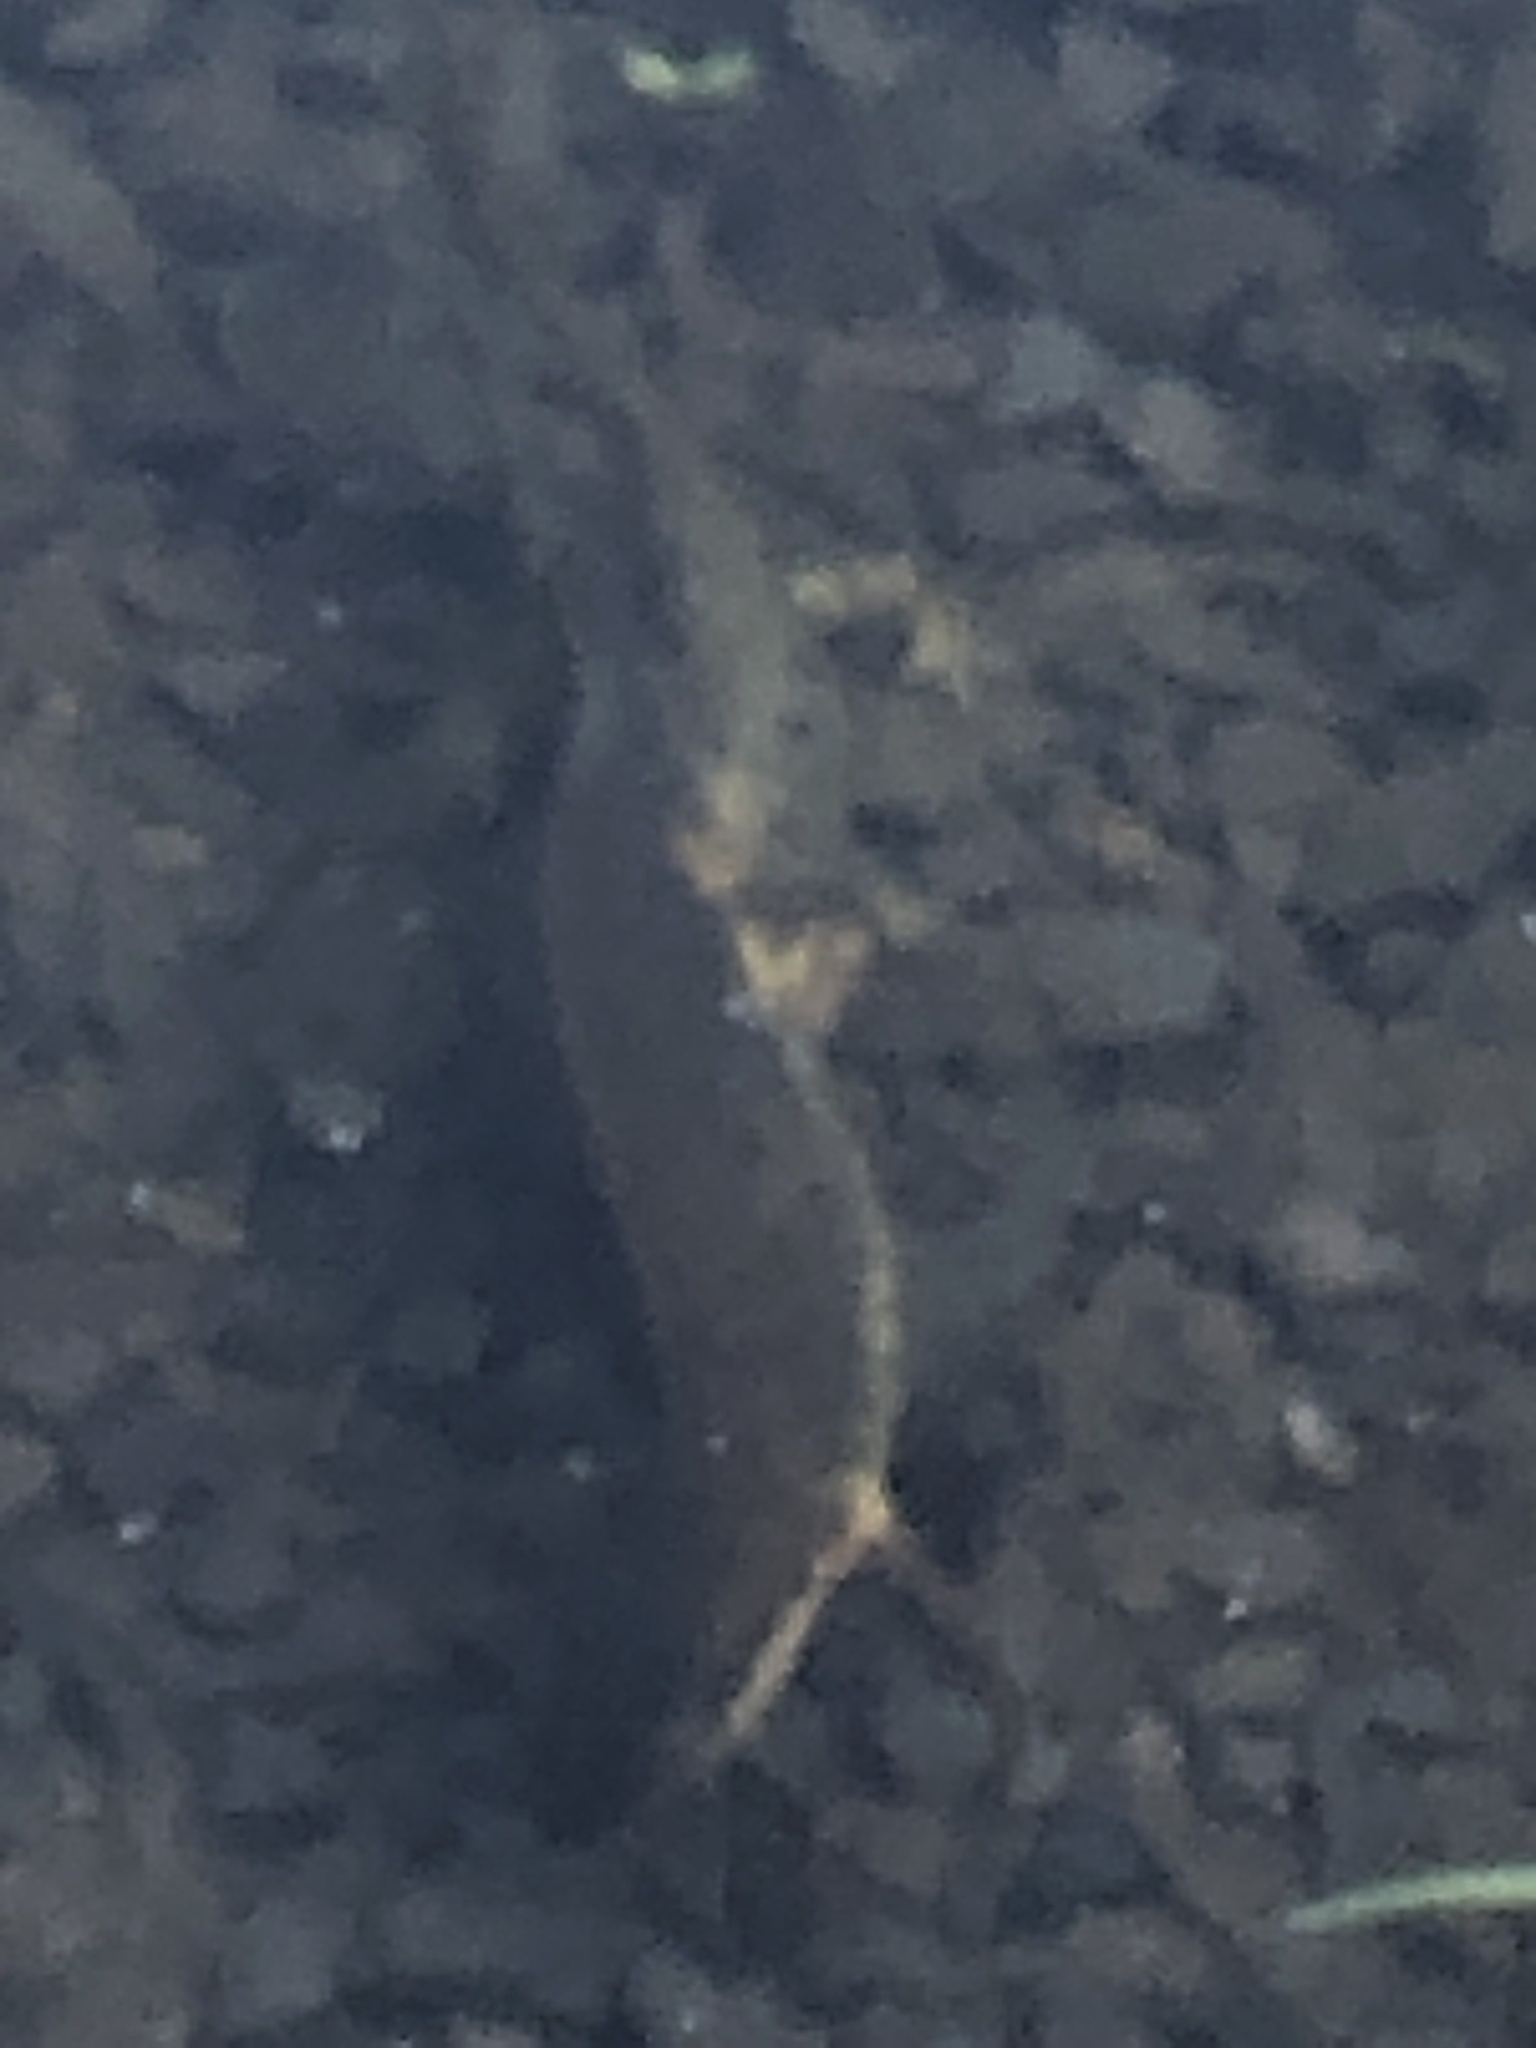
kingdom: Animalia
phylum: Chordata
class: Amphibia
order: Caudata
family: Salamandridae
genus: Notophthalmus
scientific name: Notophthalmus viridescens
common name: Eastern newt
